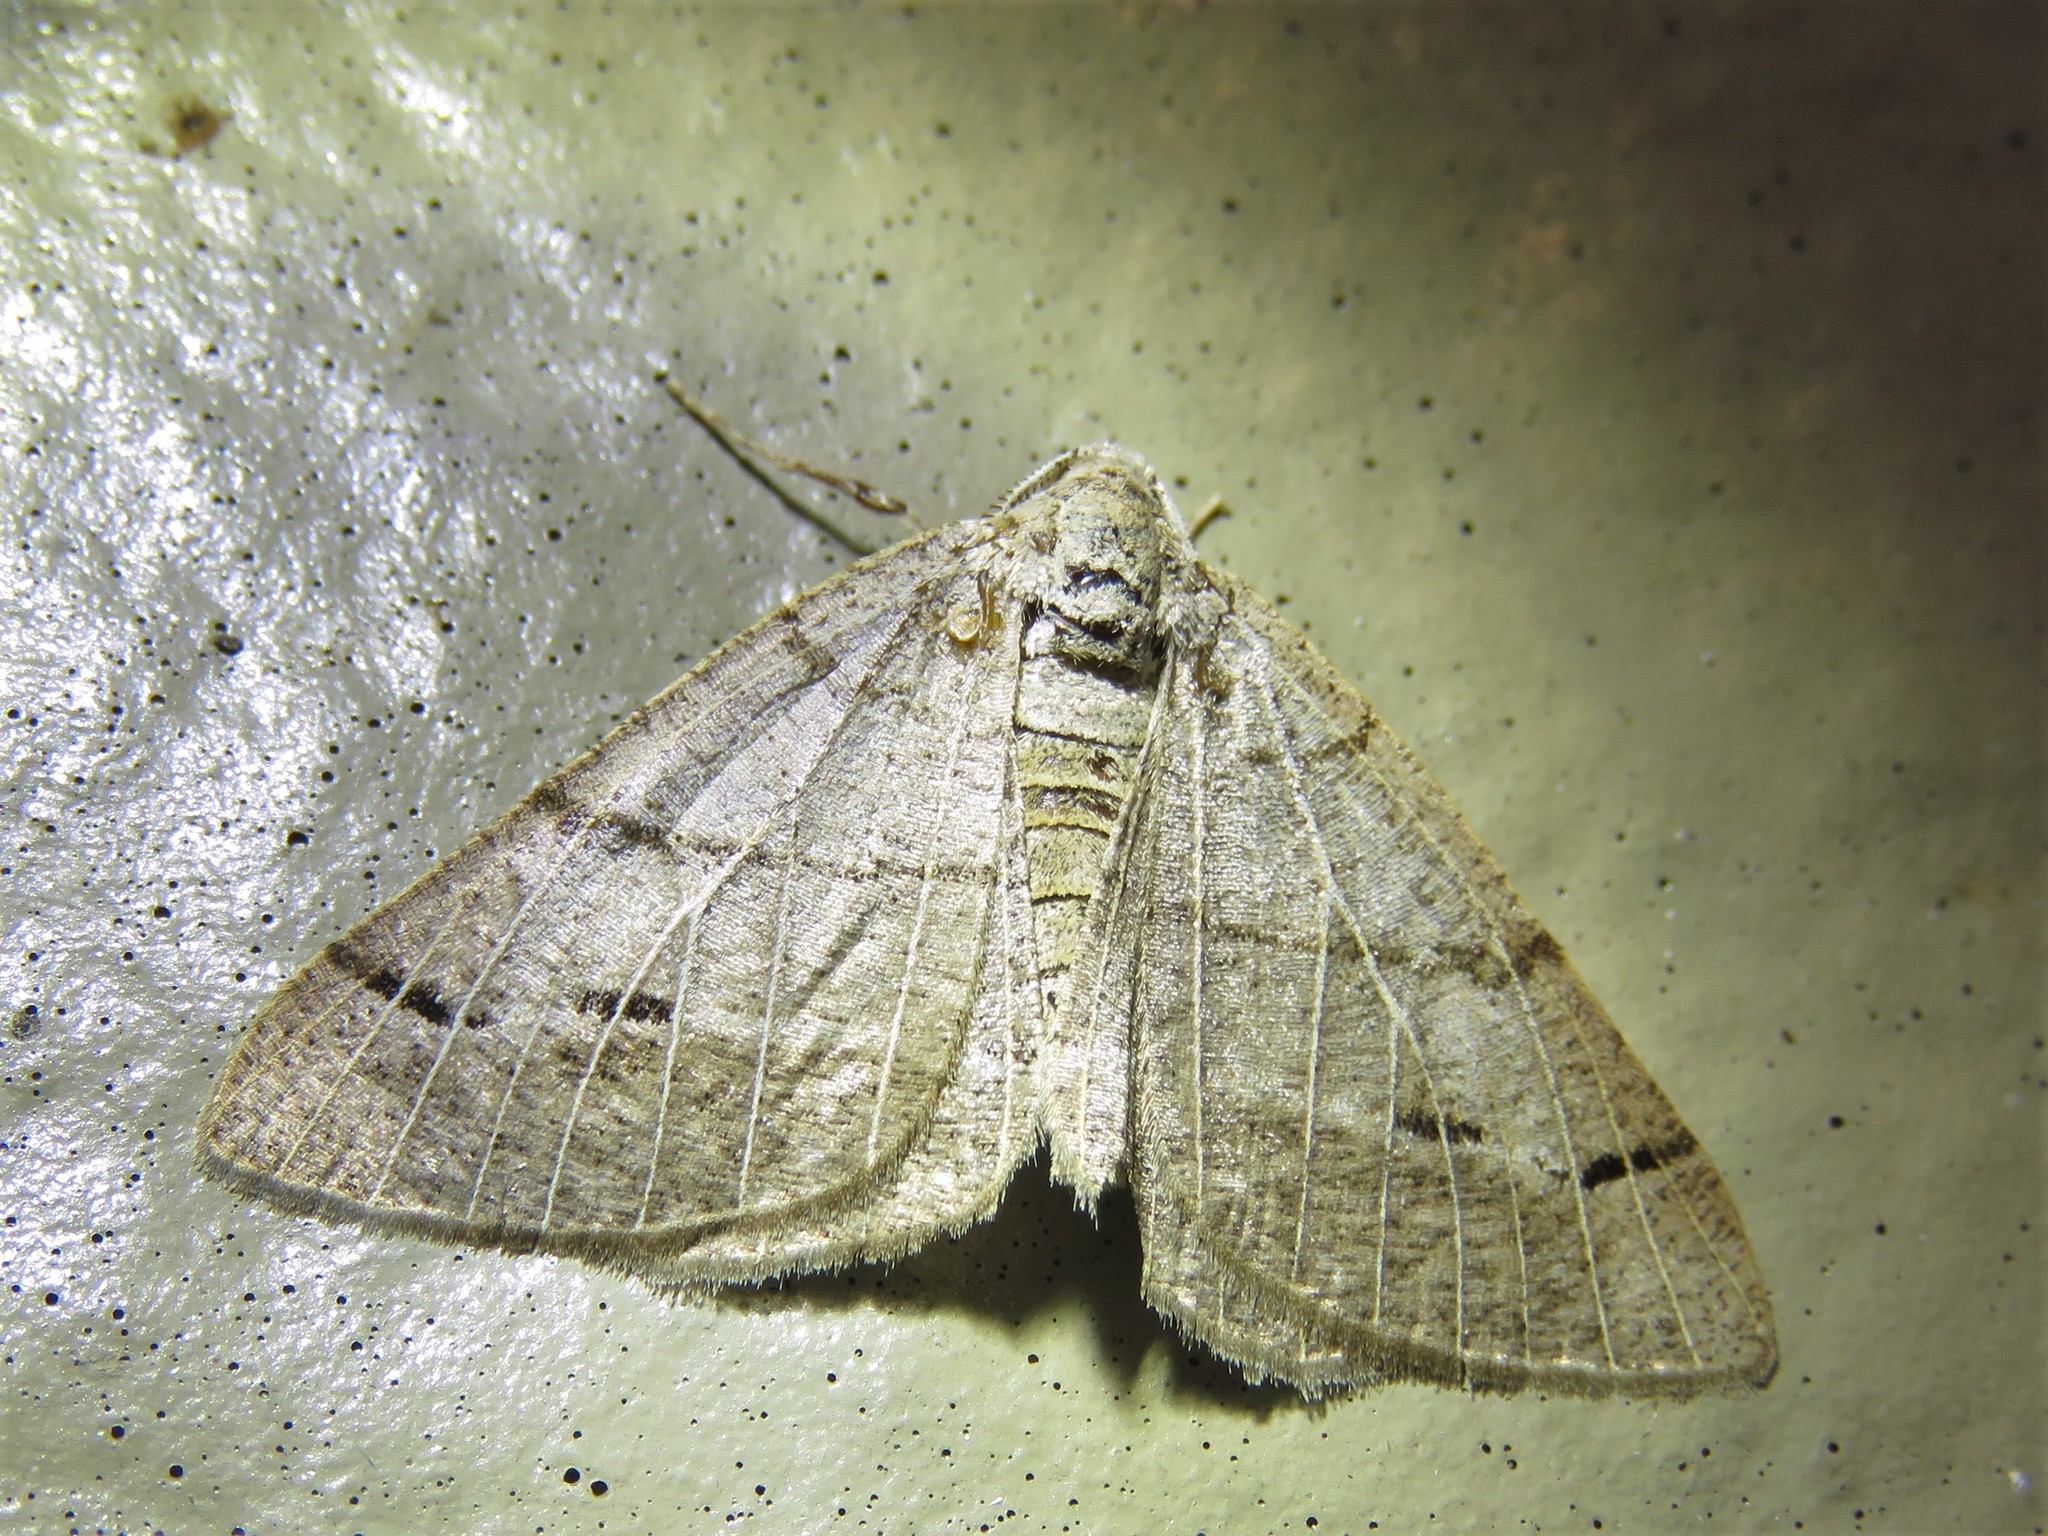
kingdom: Animalia
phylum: Arthropoda
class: Insecta
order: Lepidoptera
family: Geometridae
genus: Isturgia
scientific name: Isturgia dislocaria
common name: Pale-viened enconista
